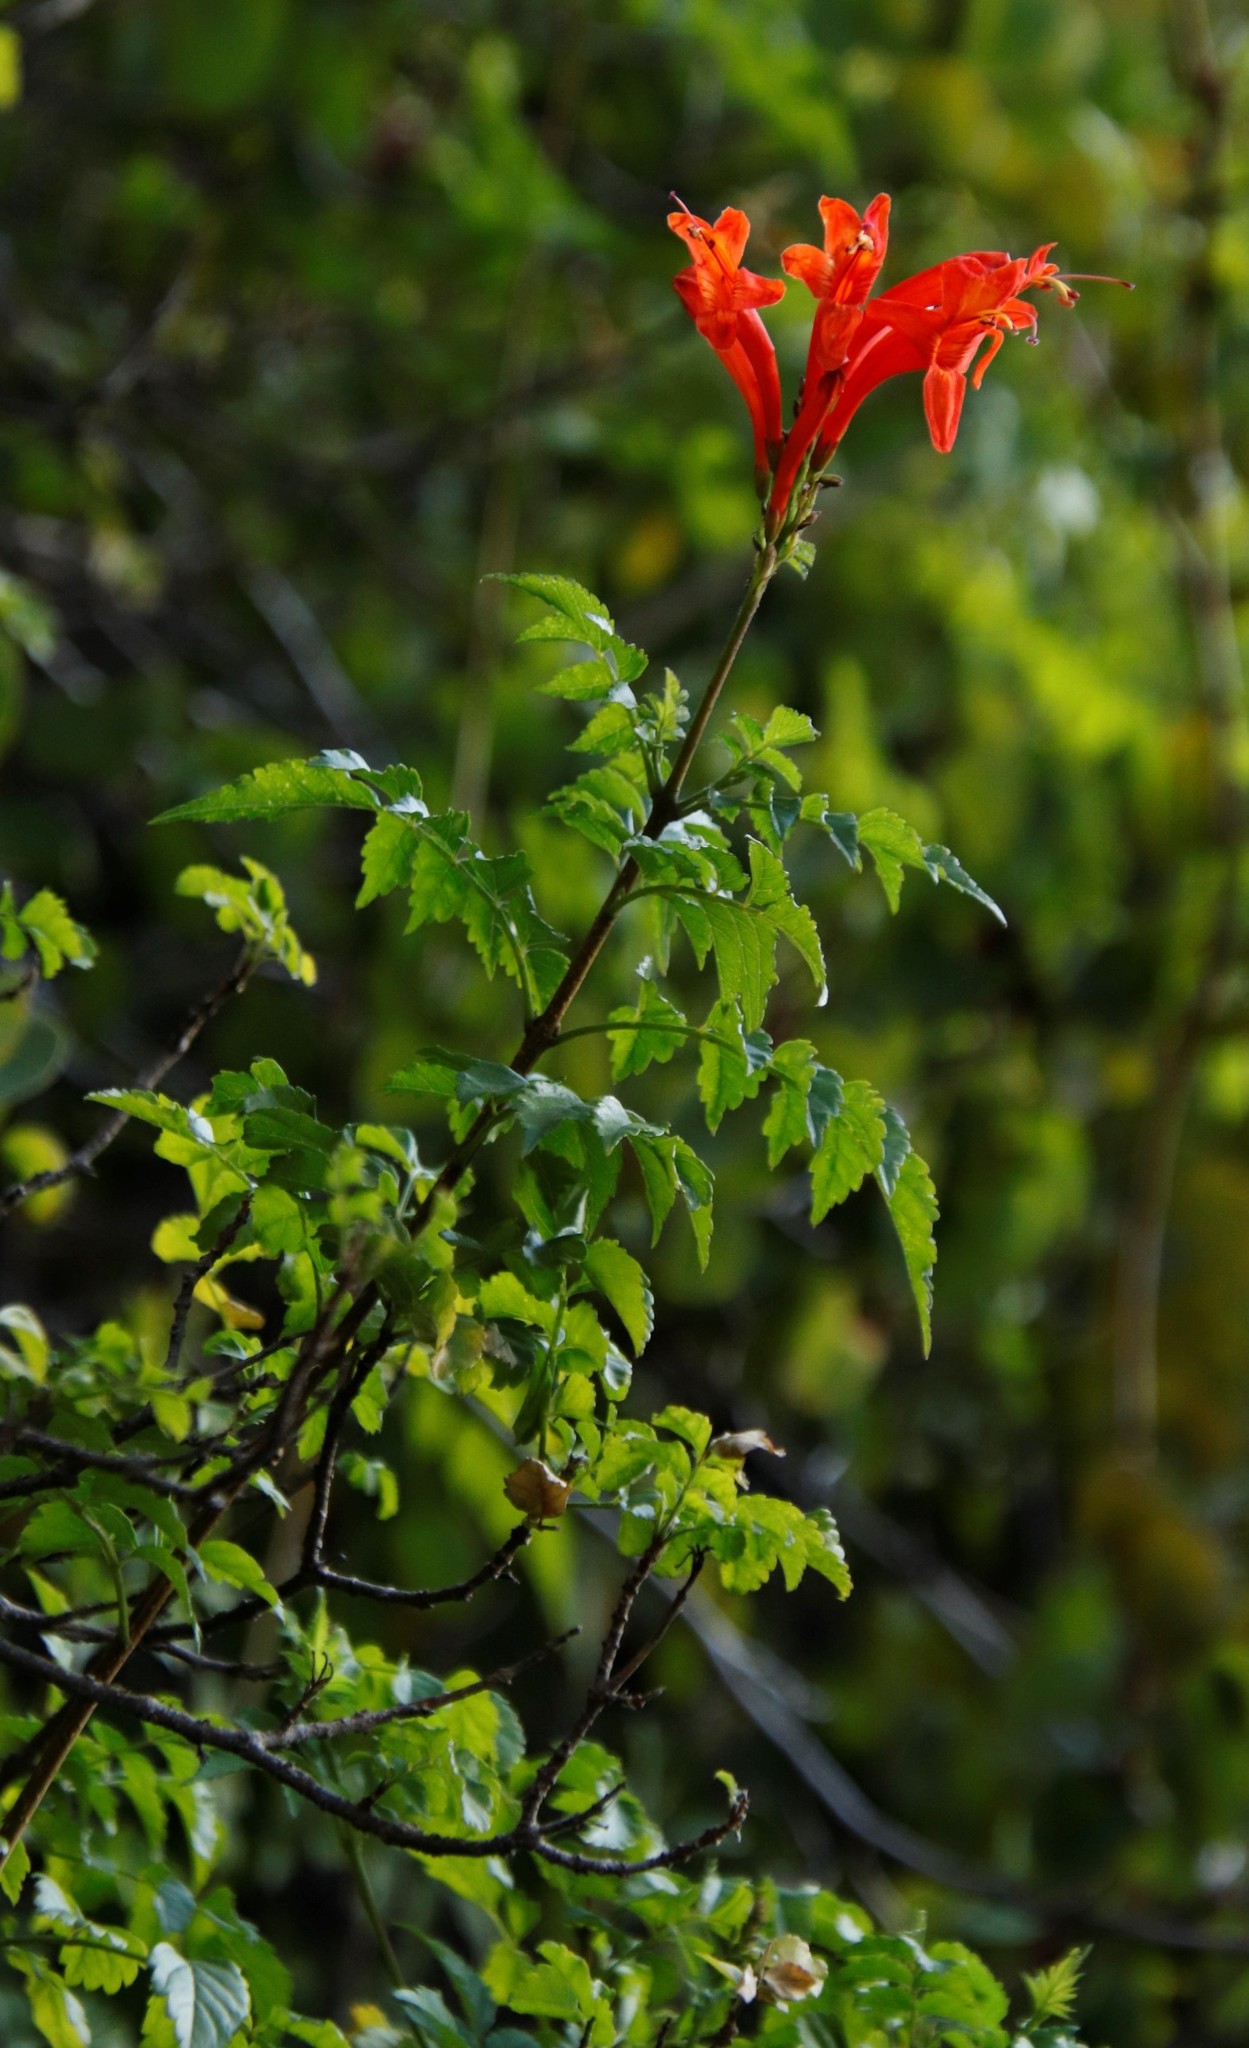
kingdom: Plantae
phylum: Tracheophyta
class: Magnoliopsida
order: Lamiales
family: Bignoniaceae
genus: Tecomaria
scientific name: Tecomaria capensis
